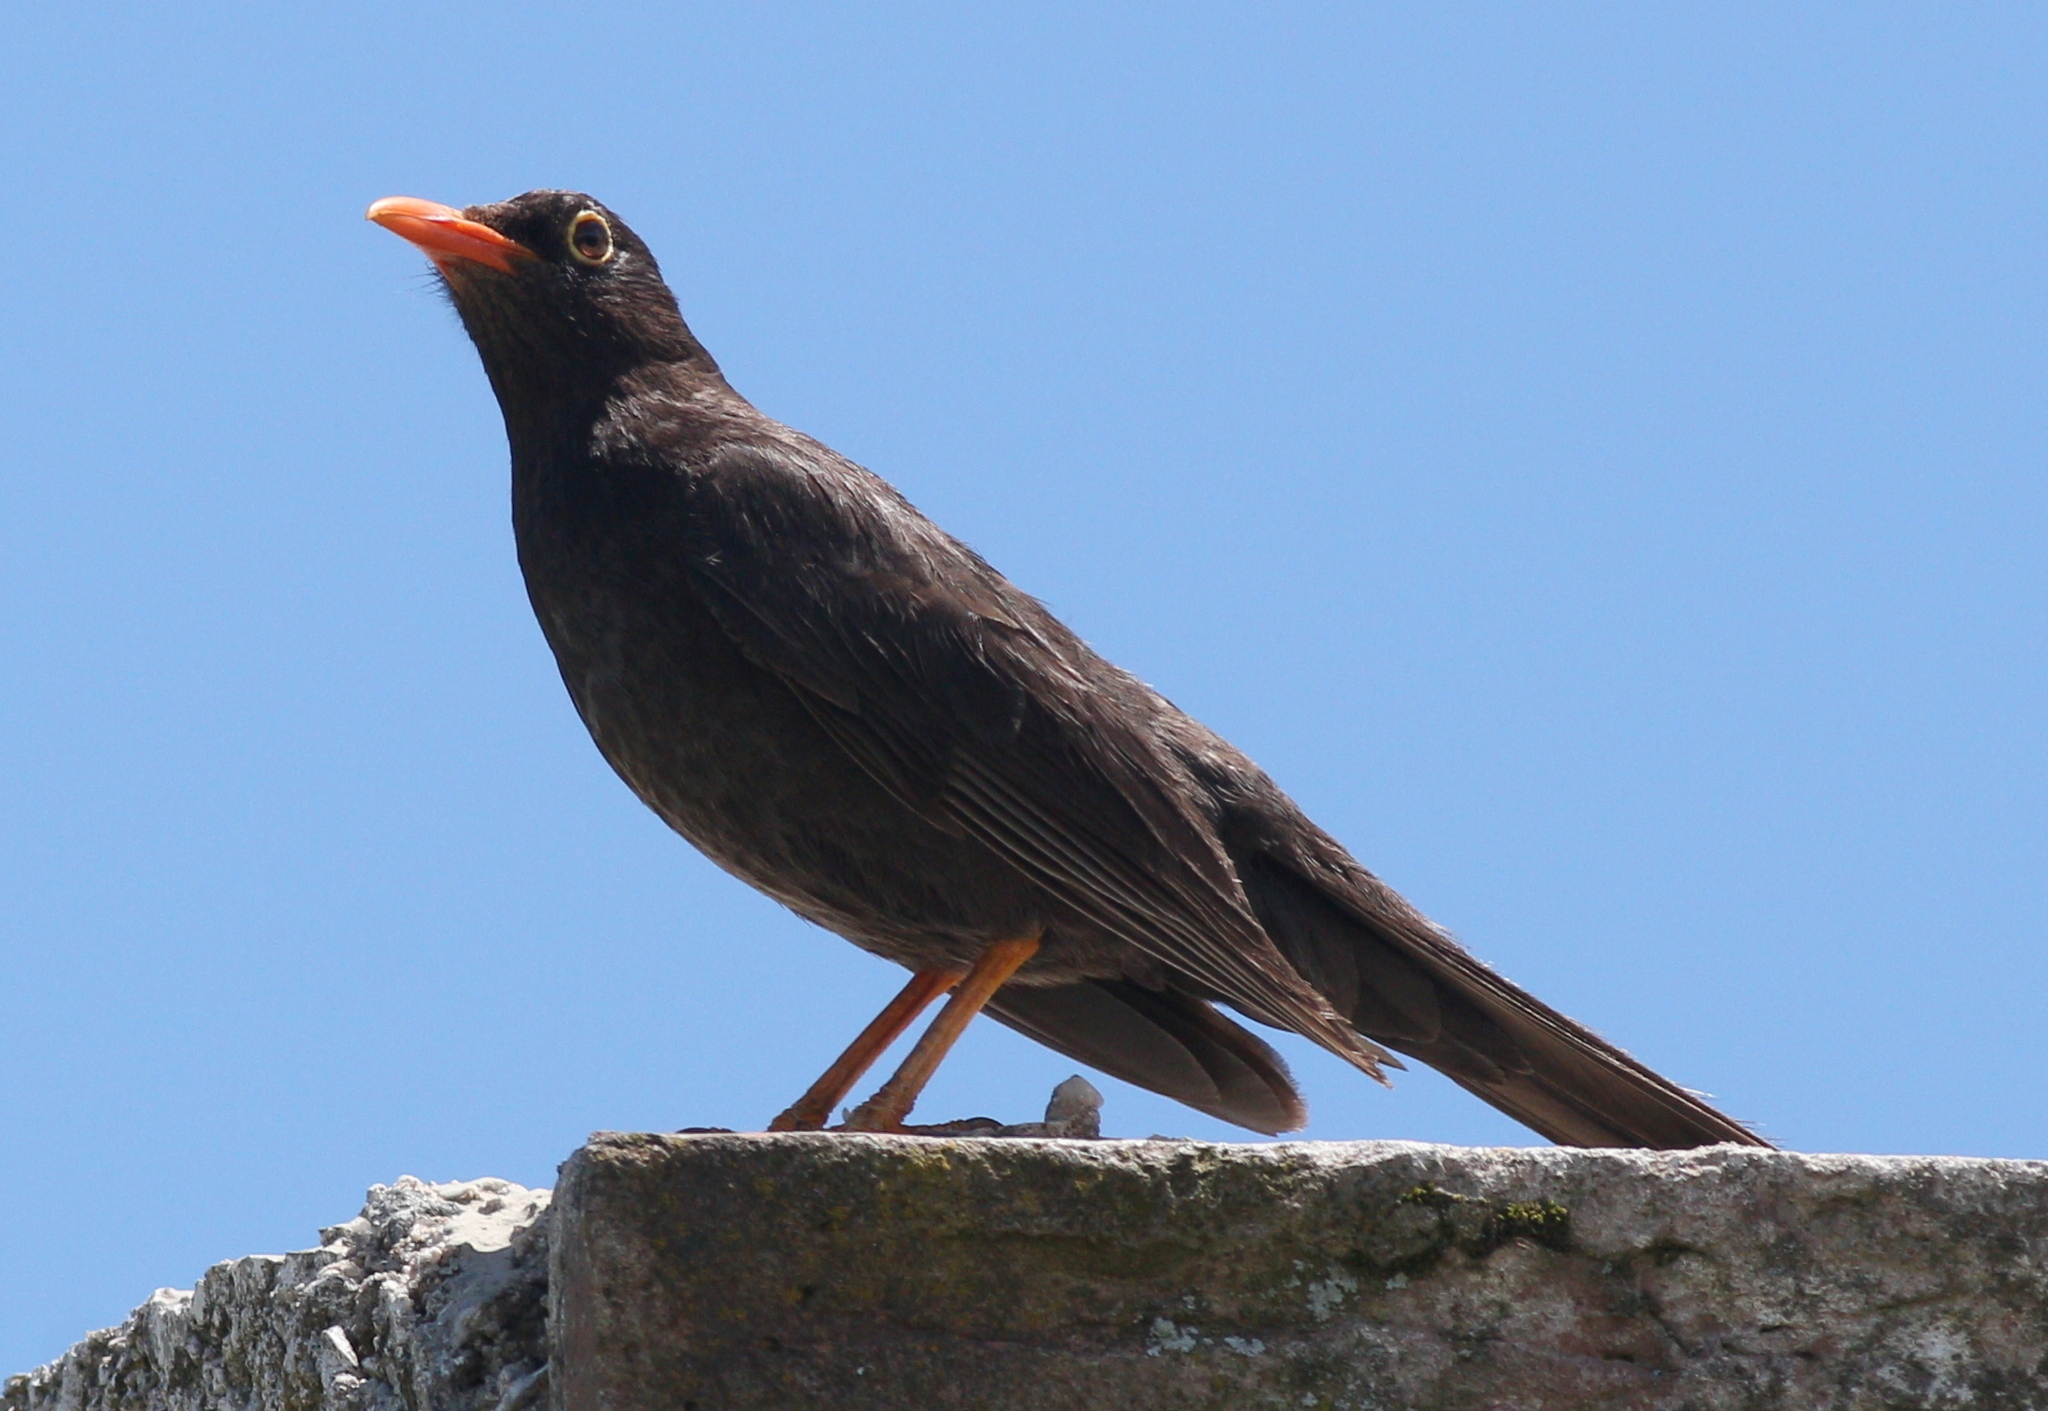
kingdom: Animalia
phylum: Chordata
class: Aves
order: Passeriformes
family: Turdidae
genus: Turdus
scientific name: Turdus chiguanco
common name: Chiguanco thrush
